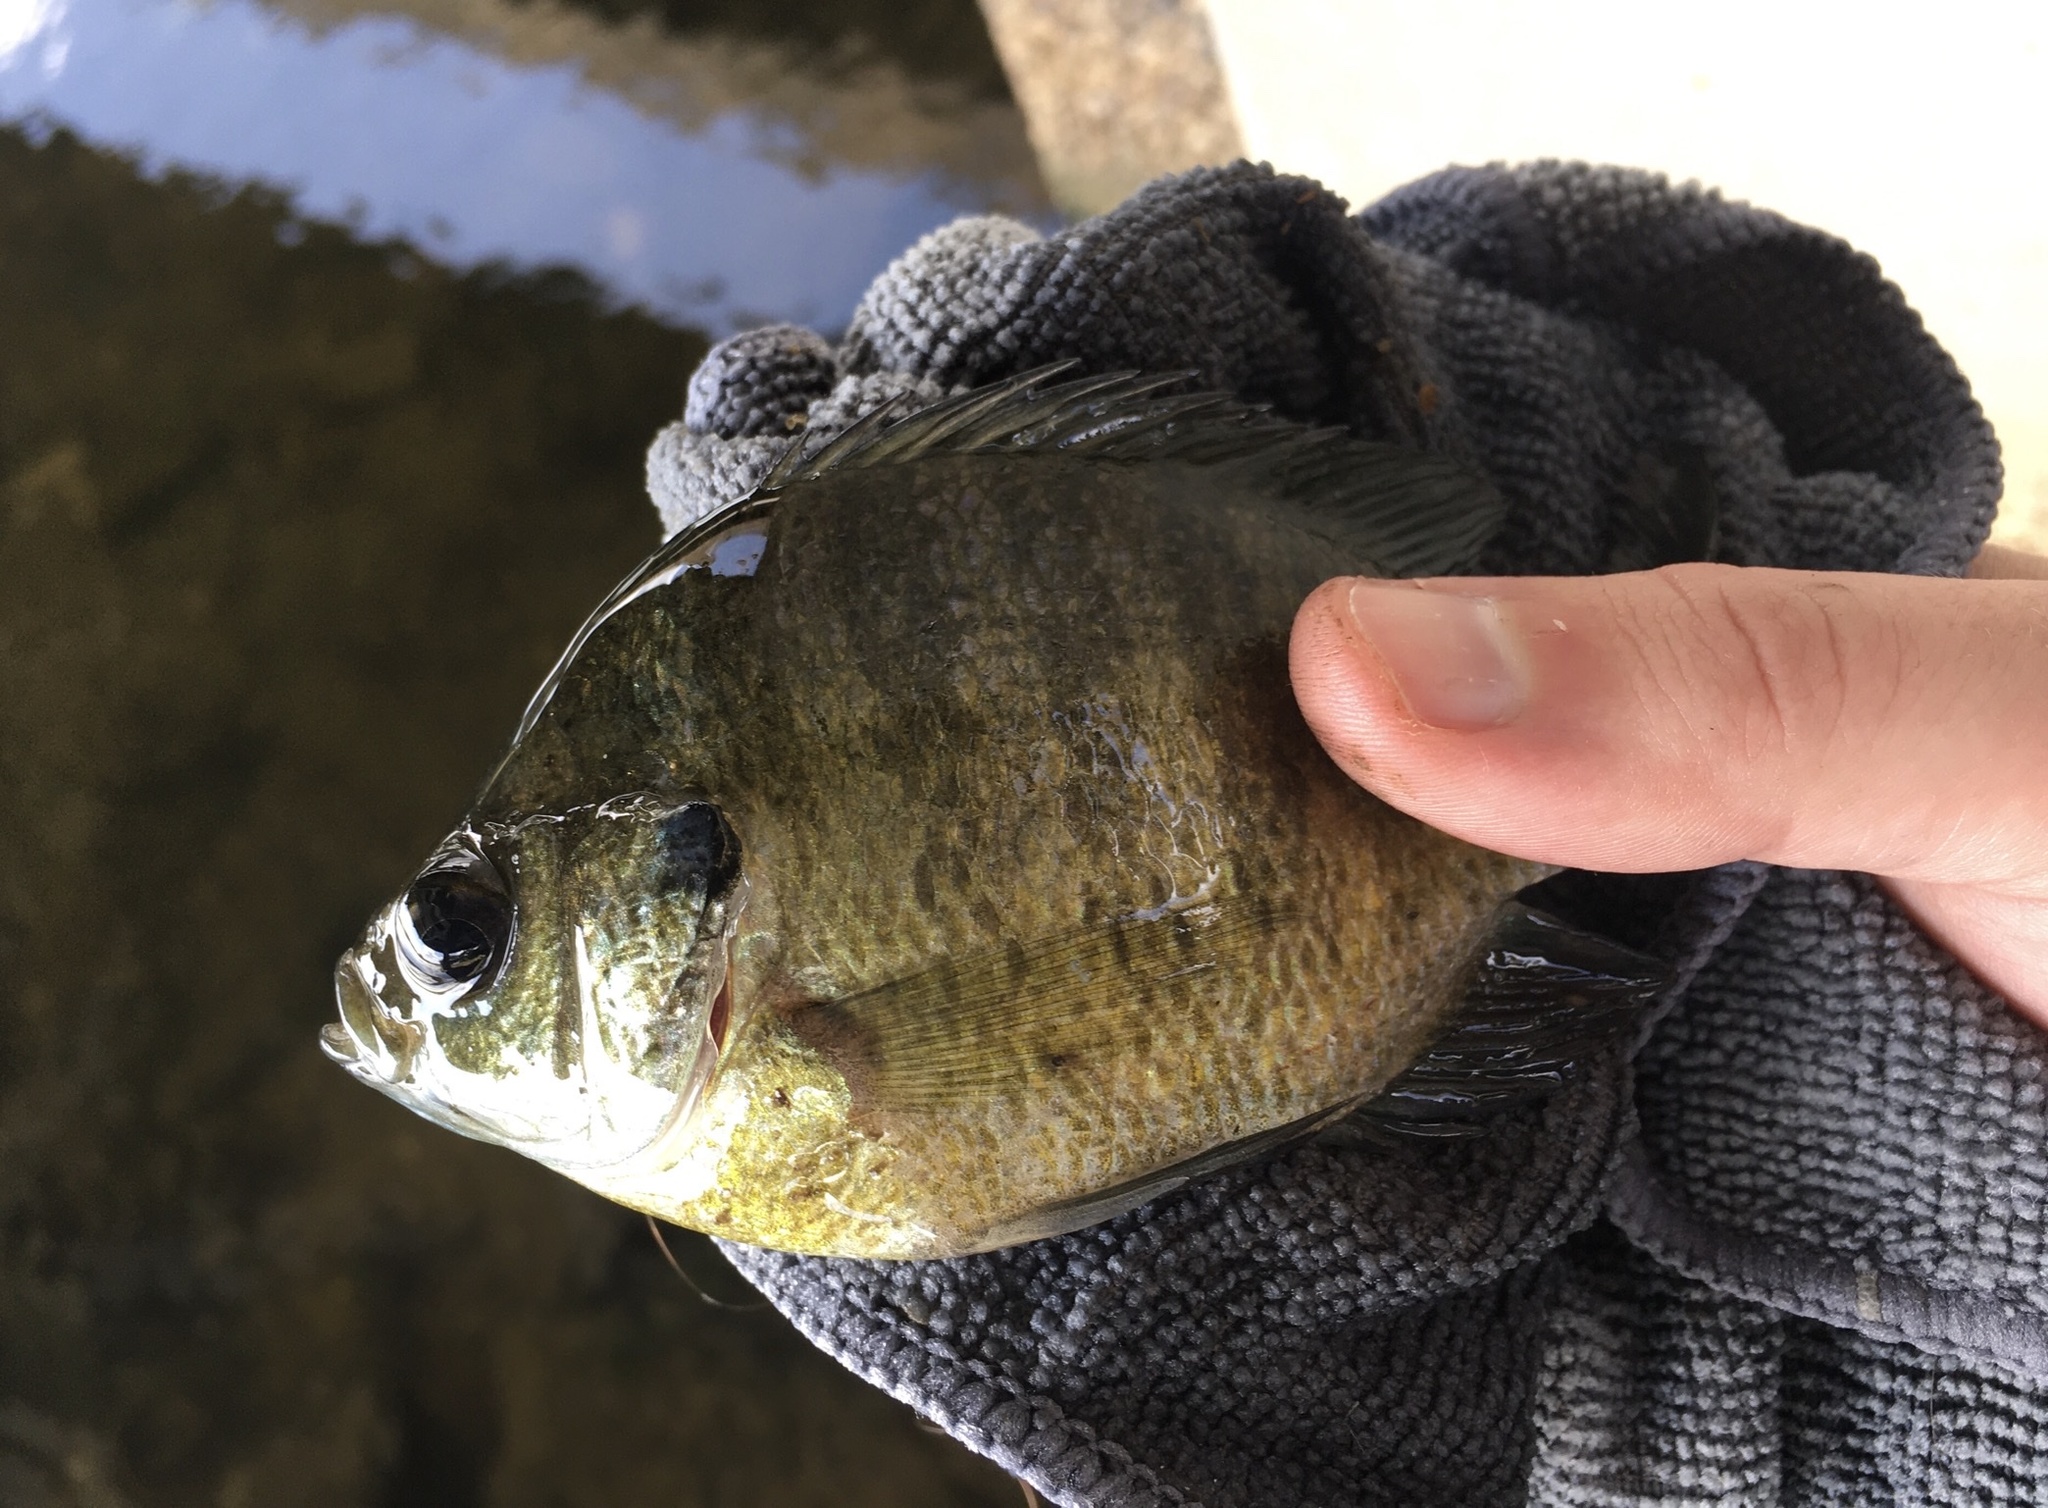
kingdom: Animalia
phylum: Chordata
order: Perciformes
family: Centrarchidae
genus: Lepomis
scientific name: Lepomis macrochirus
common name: Bluegill
